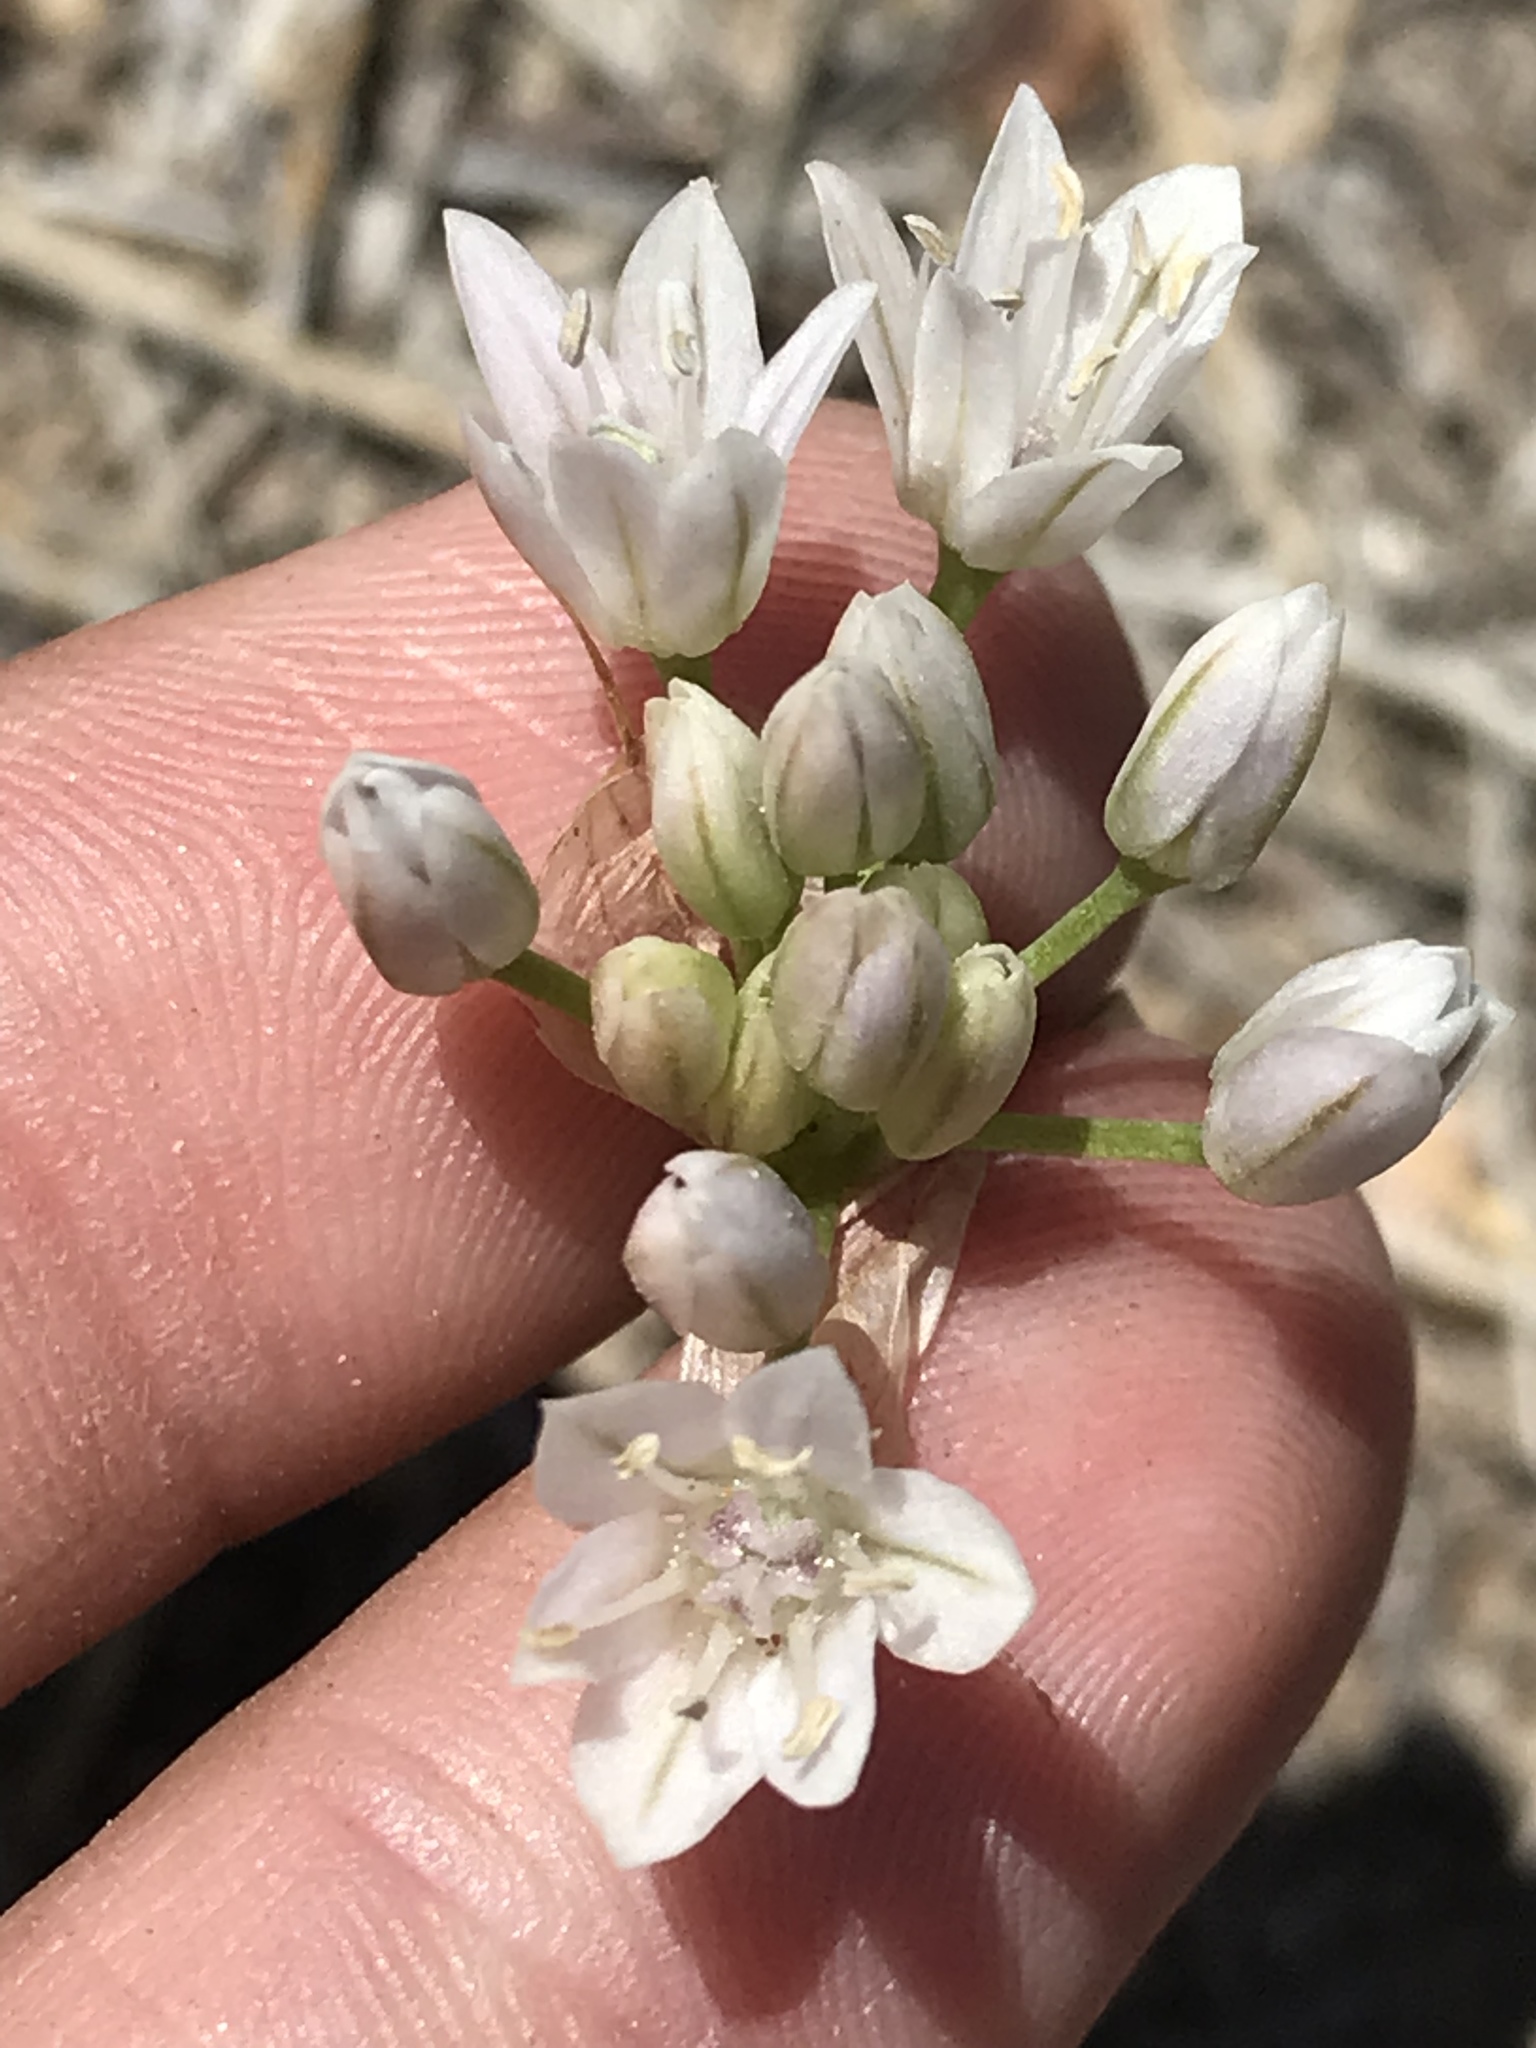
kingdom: Plantae
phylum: Tracheophyta
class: Liliopsida
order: Asparagales
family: Amaryllidaceae
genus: Allium
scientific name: Allium parryi
